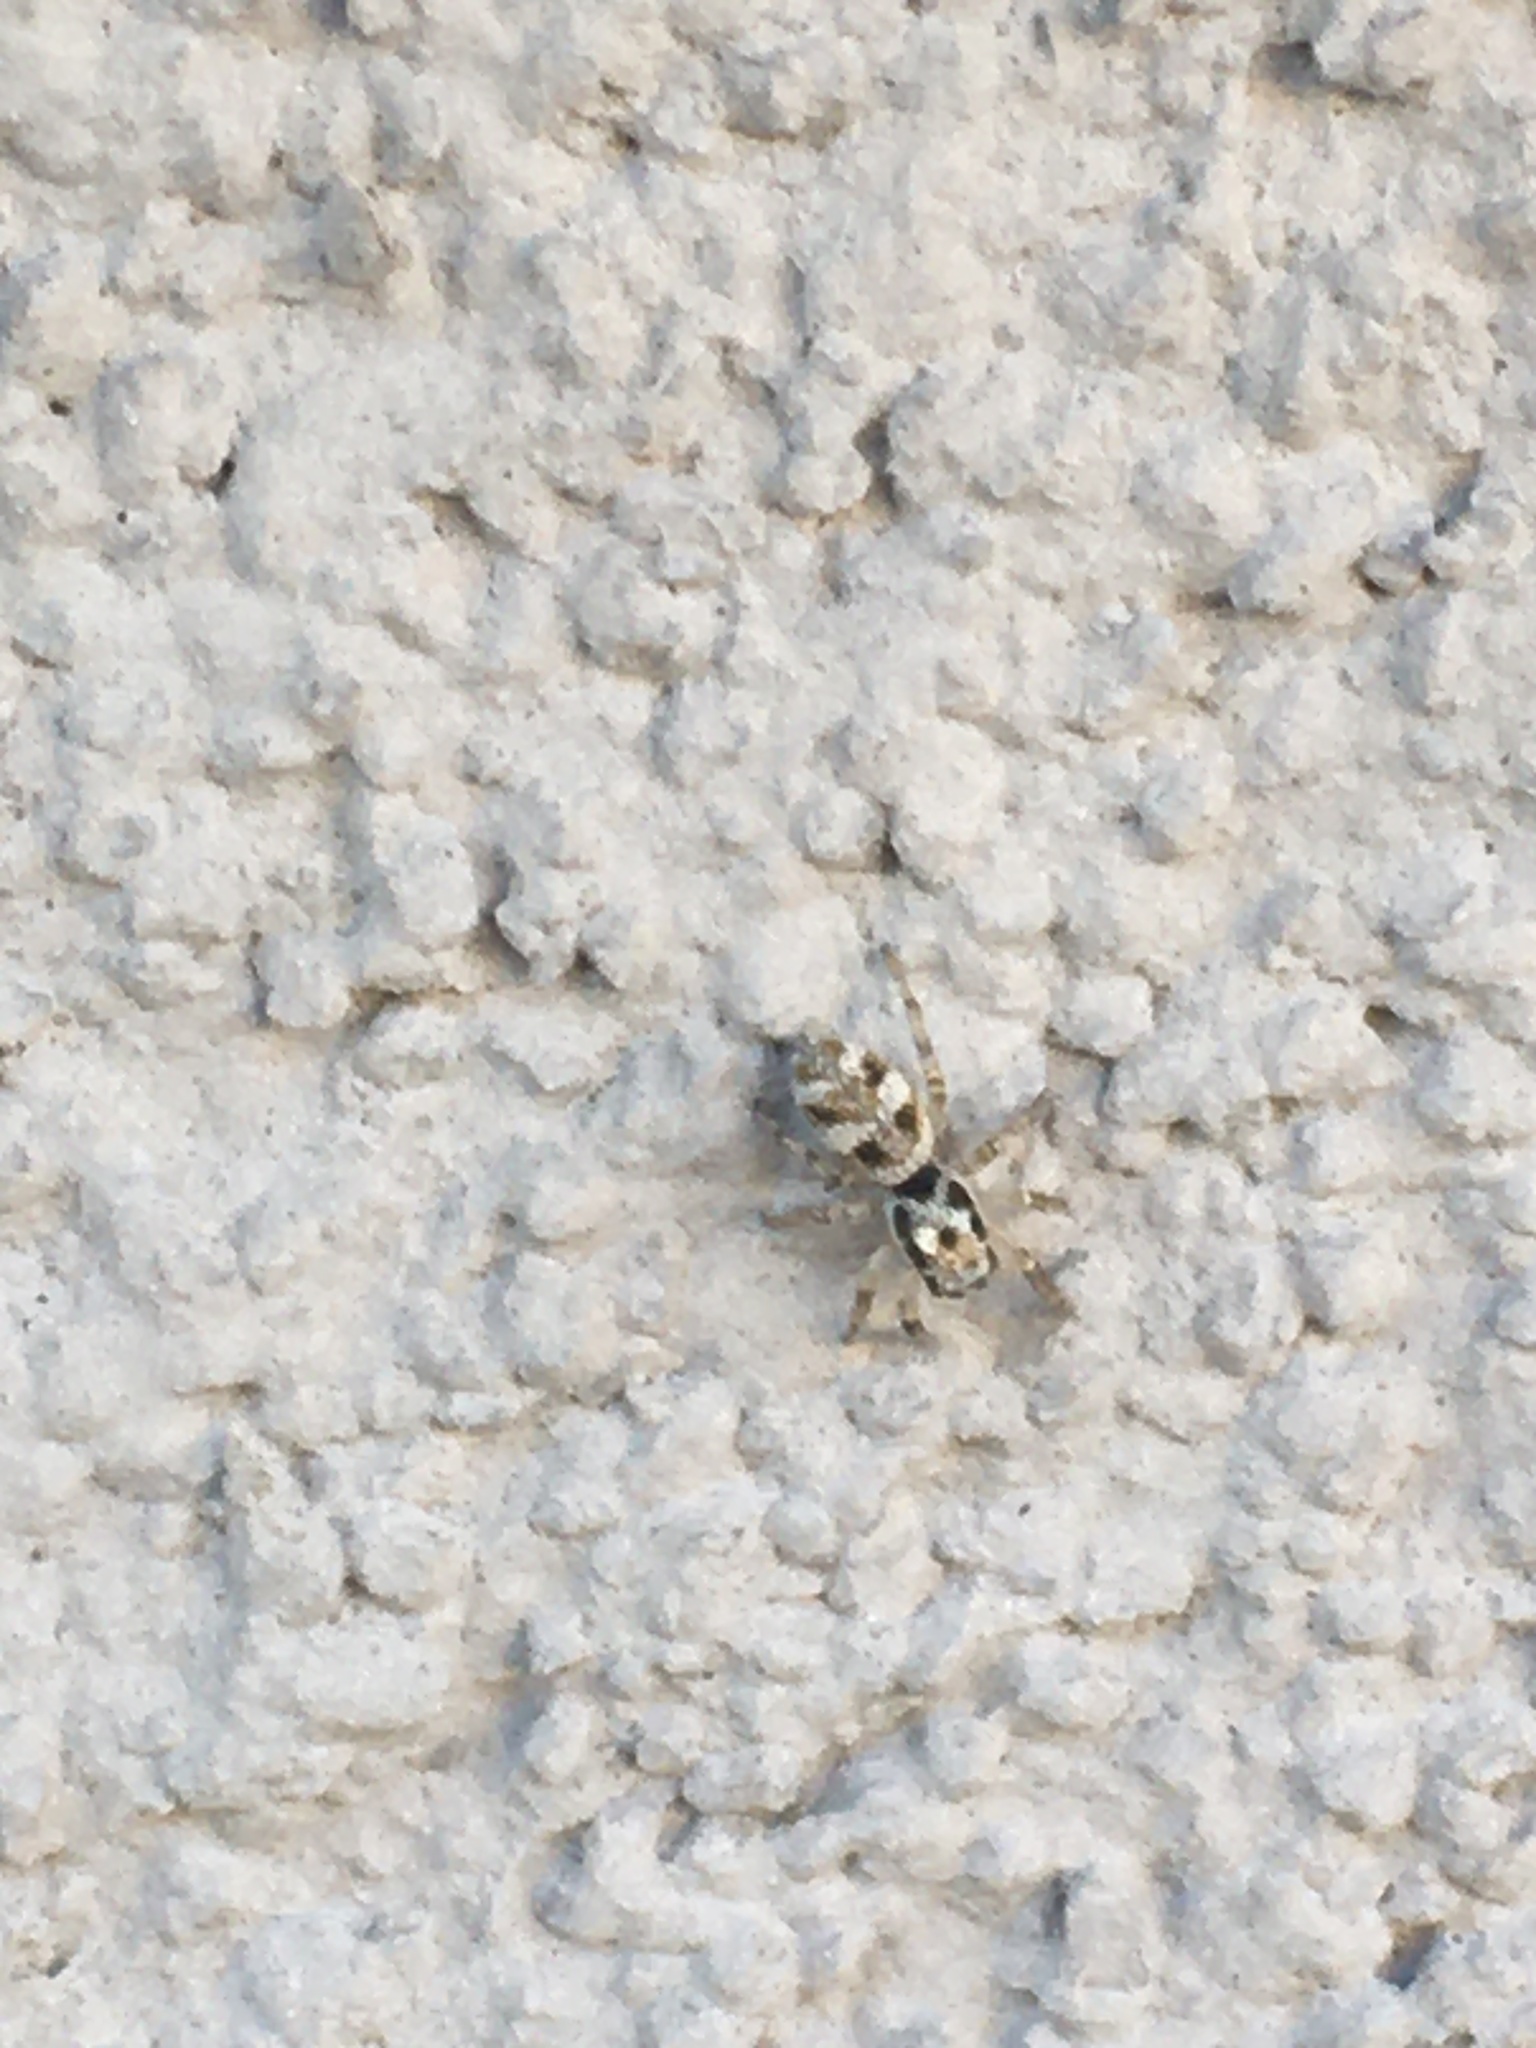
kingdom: Animalia
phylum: Arthropoda
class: Arachnida
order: Araneae
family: Salticidae
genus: Salticus
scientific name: Salticus scenicus
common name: Zebra jumper
